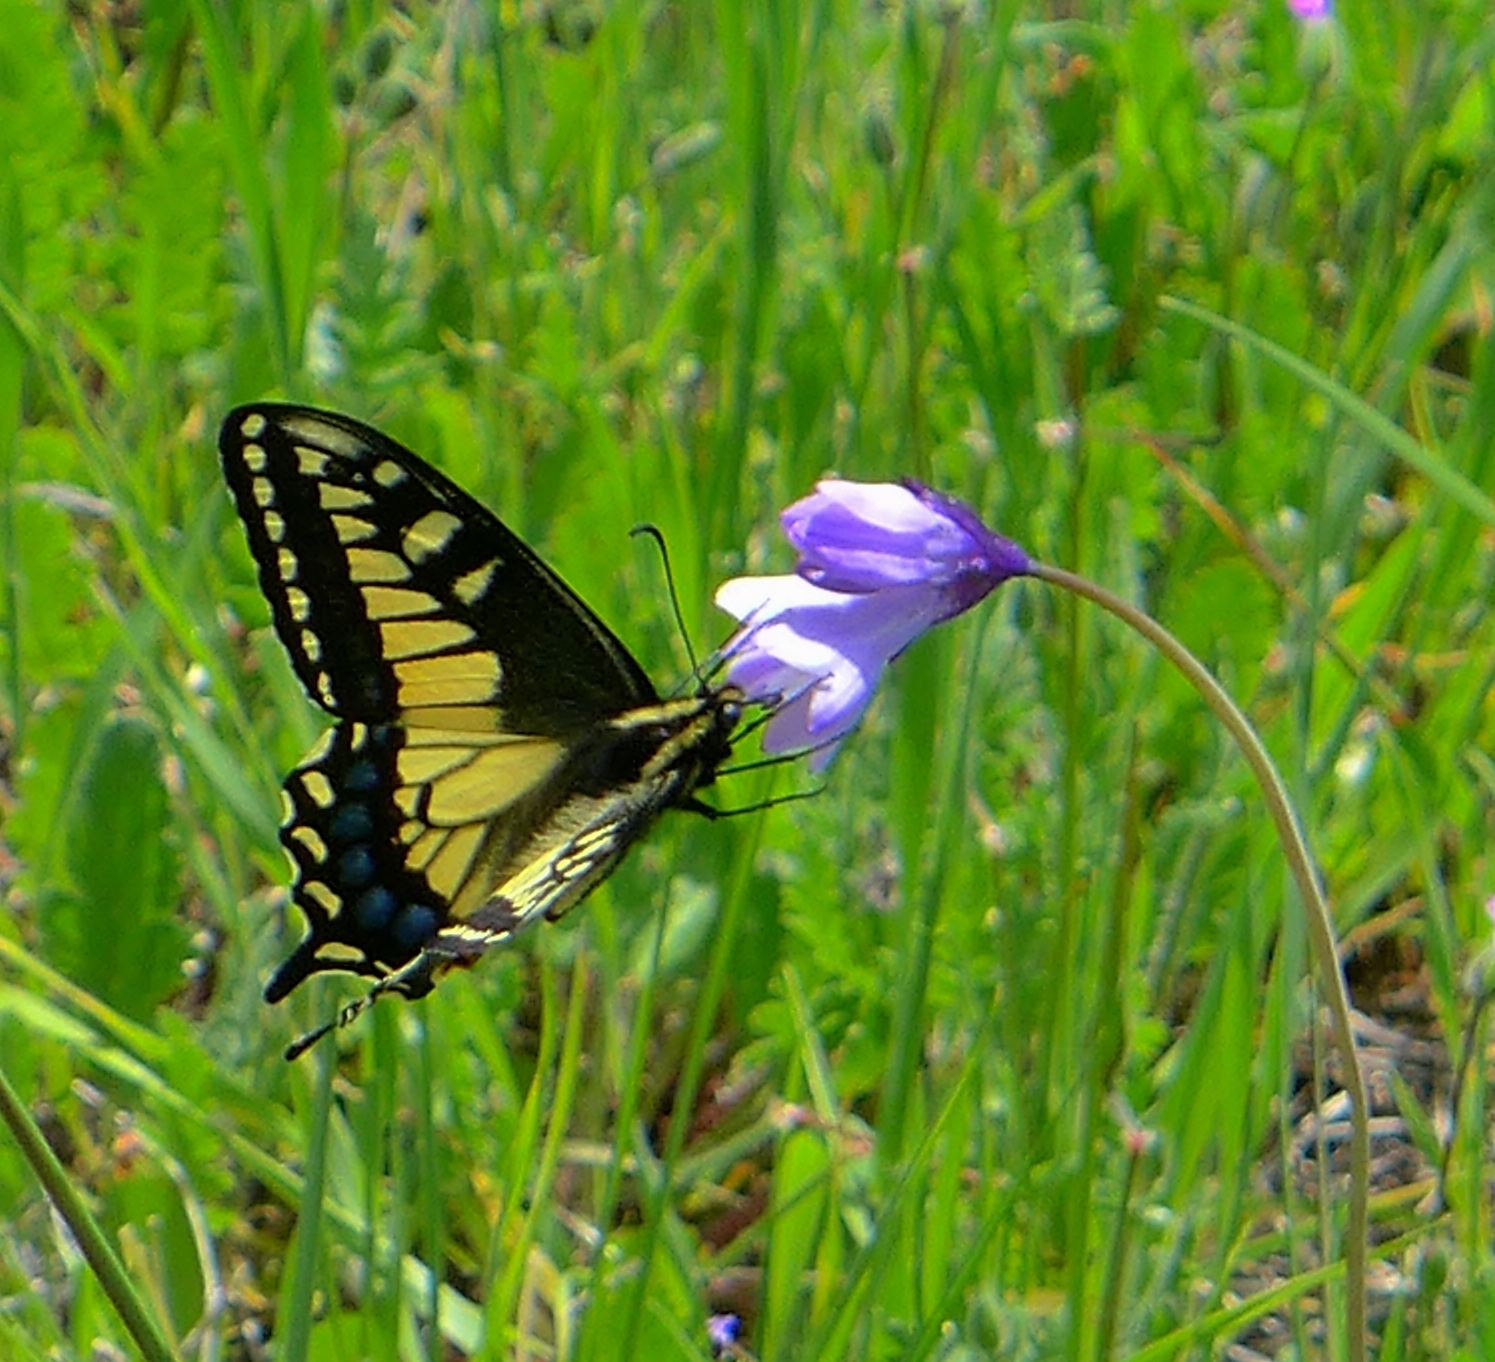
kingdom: Animalia
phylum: Arthropoda
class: Insecta
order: Lepidoptera
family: Papilionidae
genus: Papilio
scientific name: Papilio zelicaon
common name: Anise swallowtail
